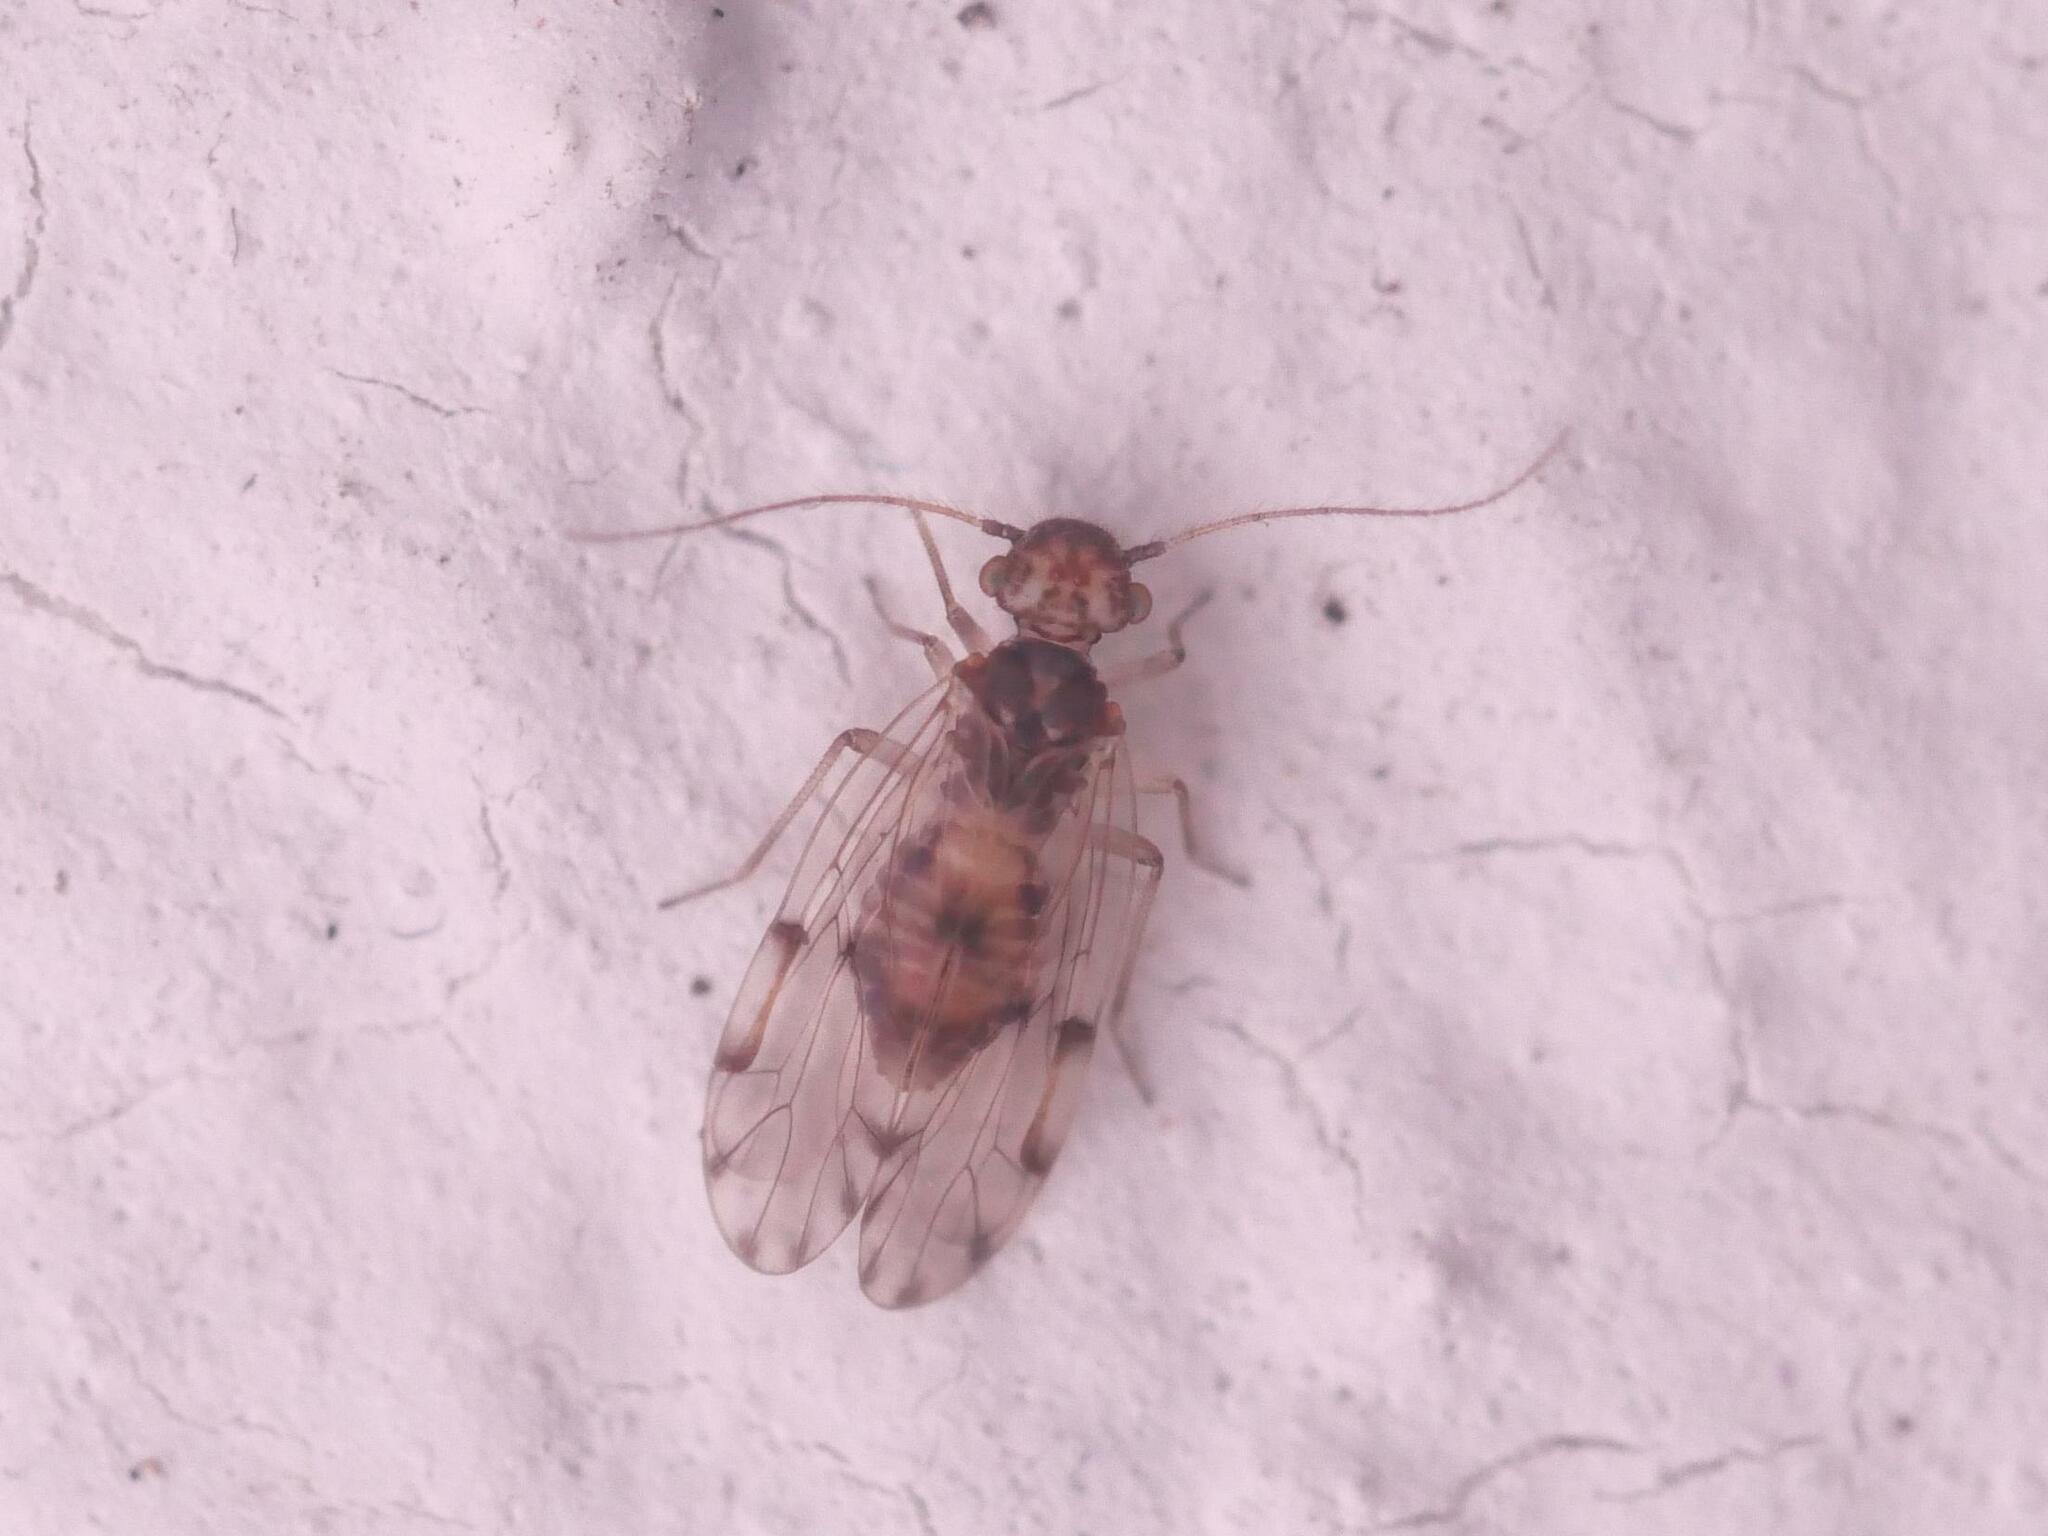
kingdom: Animalia
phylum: Arthropoda
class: Insecta
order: Psocodea
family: Ectopsocidae
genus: Ectopsocus
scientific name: Ectopsocus petersi
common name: Medium-sized bark louse
